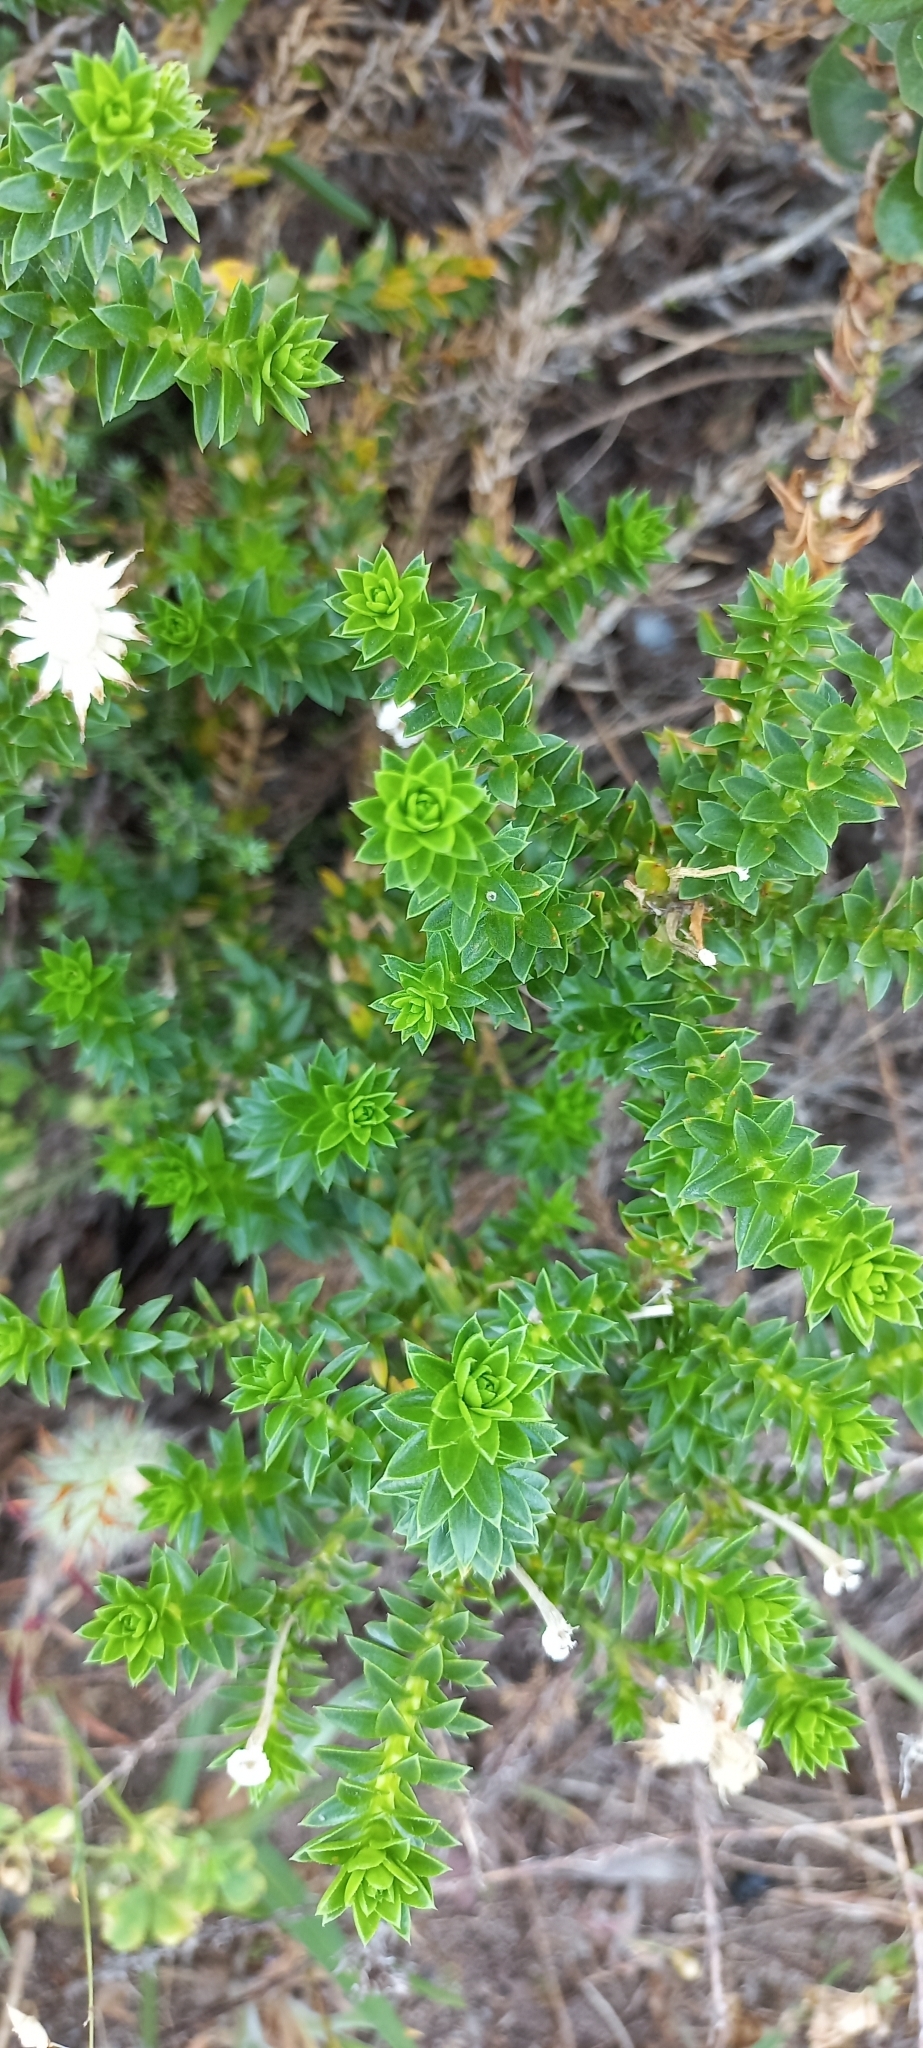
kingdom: Plantae
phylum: Tracheophyta
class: Magnoliopsida
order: Asterales
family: Asteraceae
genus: Felicia
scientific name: Felicia echinata
